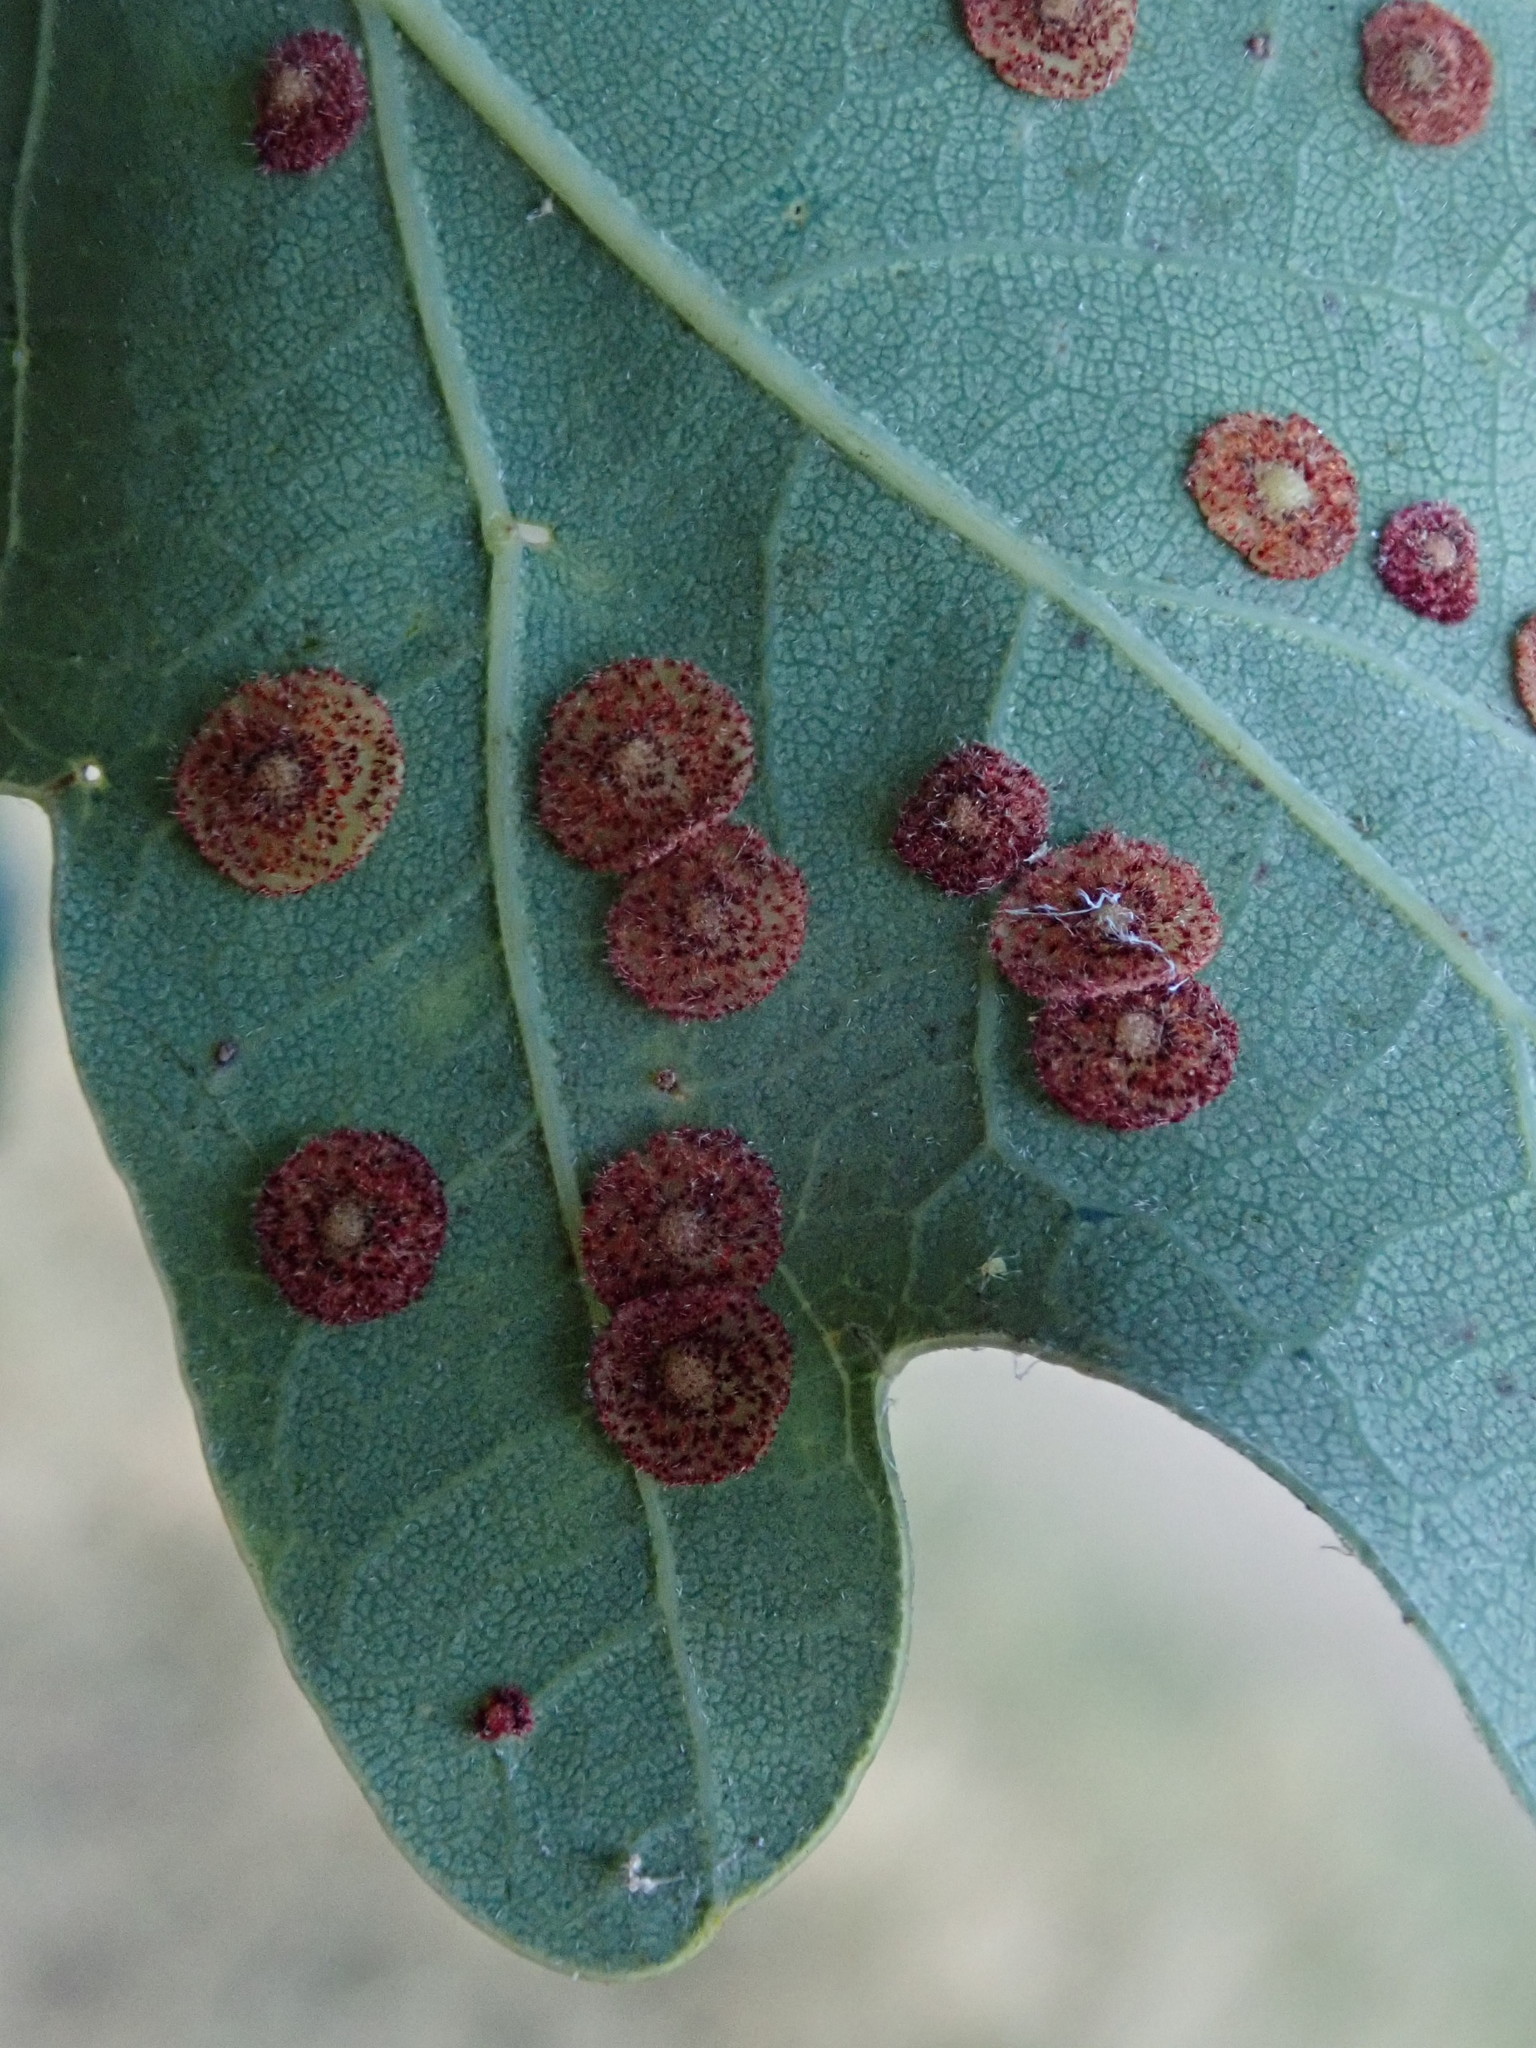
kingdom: Animalia
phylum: Arthropoda
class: Insecta
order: Hymenoptera
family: Cynipidae
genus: Neuroterus
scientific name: Neuroterus quercusbaccarum
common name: Common spangle gall
